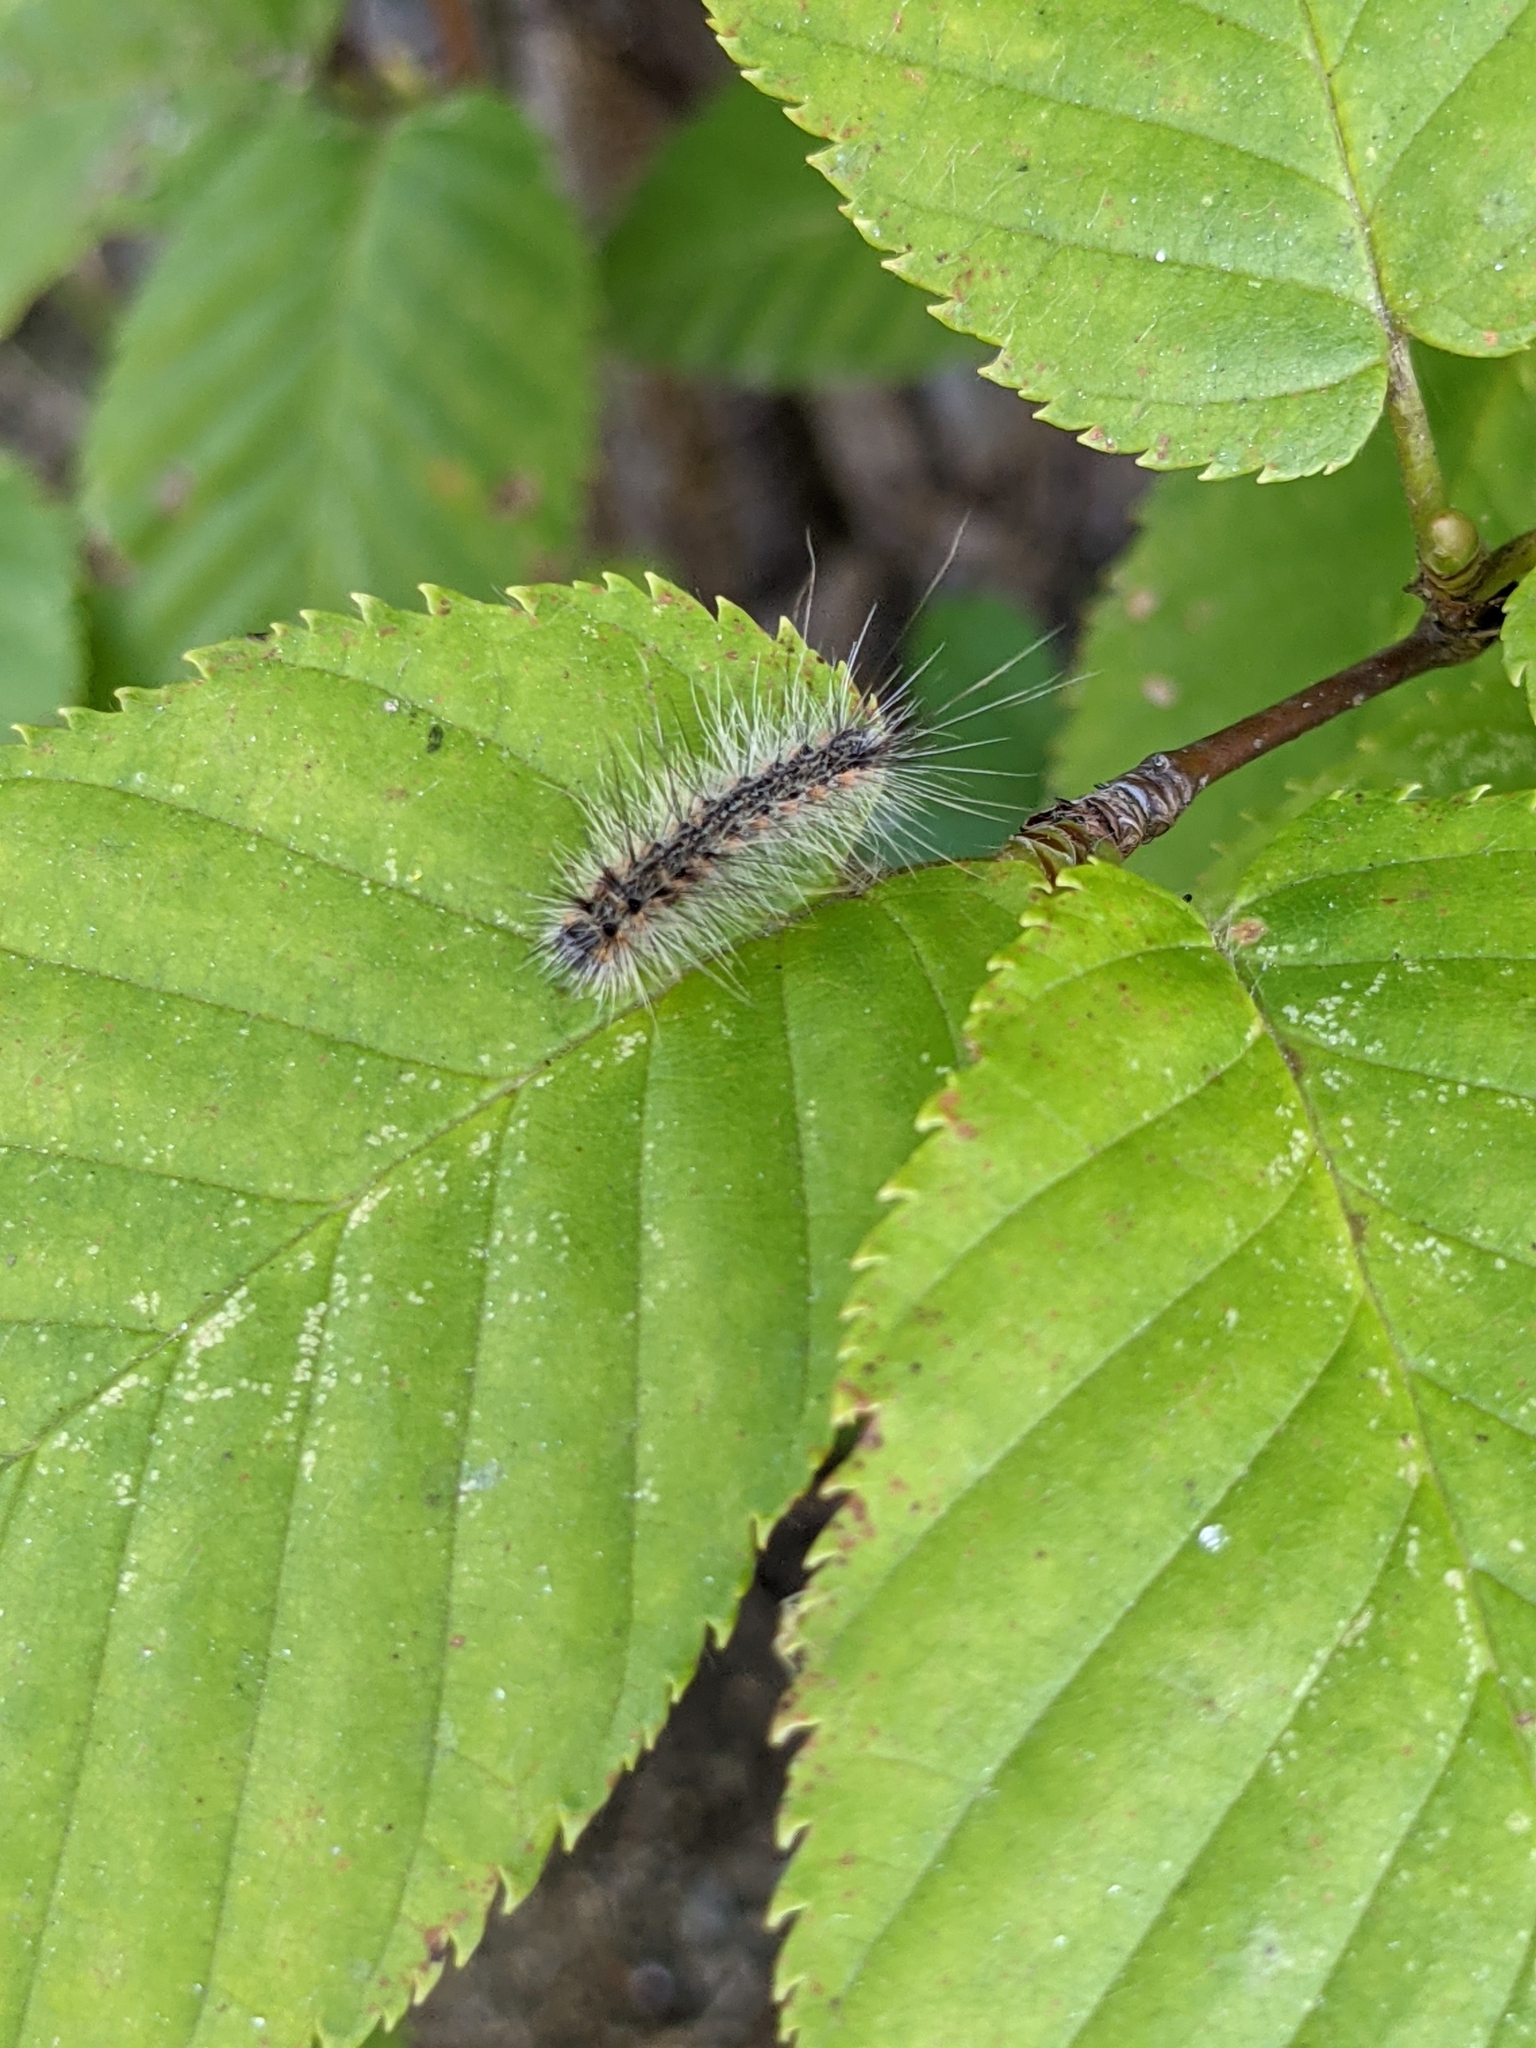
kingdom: Animalia
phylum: Arthropoda
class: Insecta
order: Lepidoptera
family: Erebidae
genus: Hyphantria
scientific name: Hyphantria cunea
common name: American white moth
